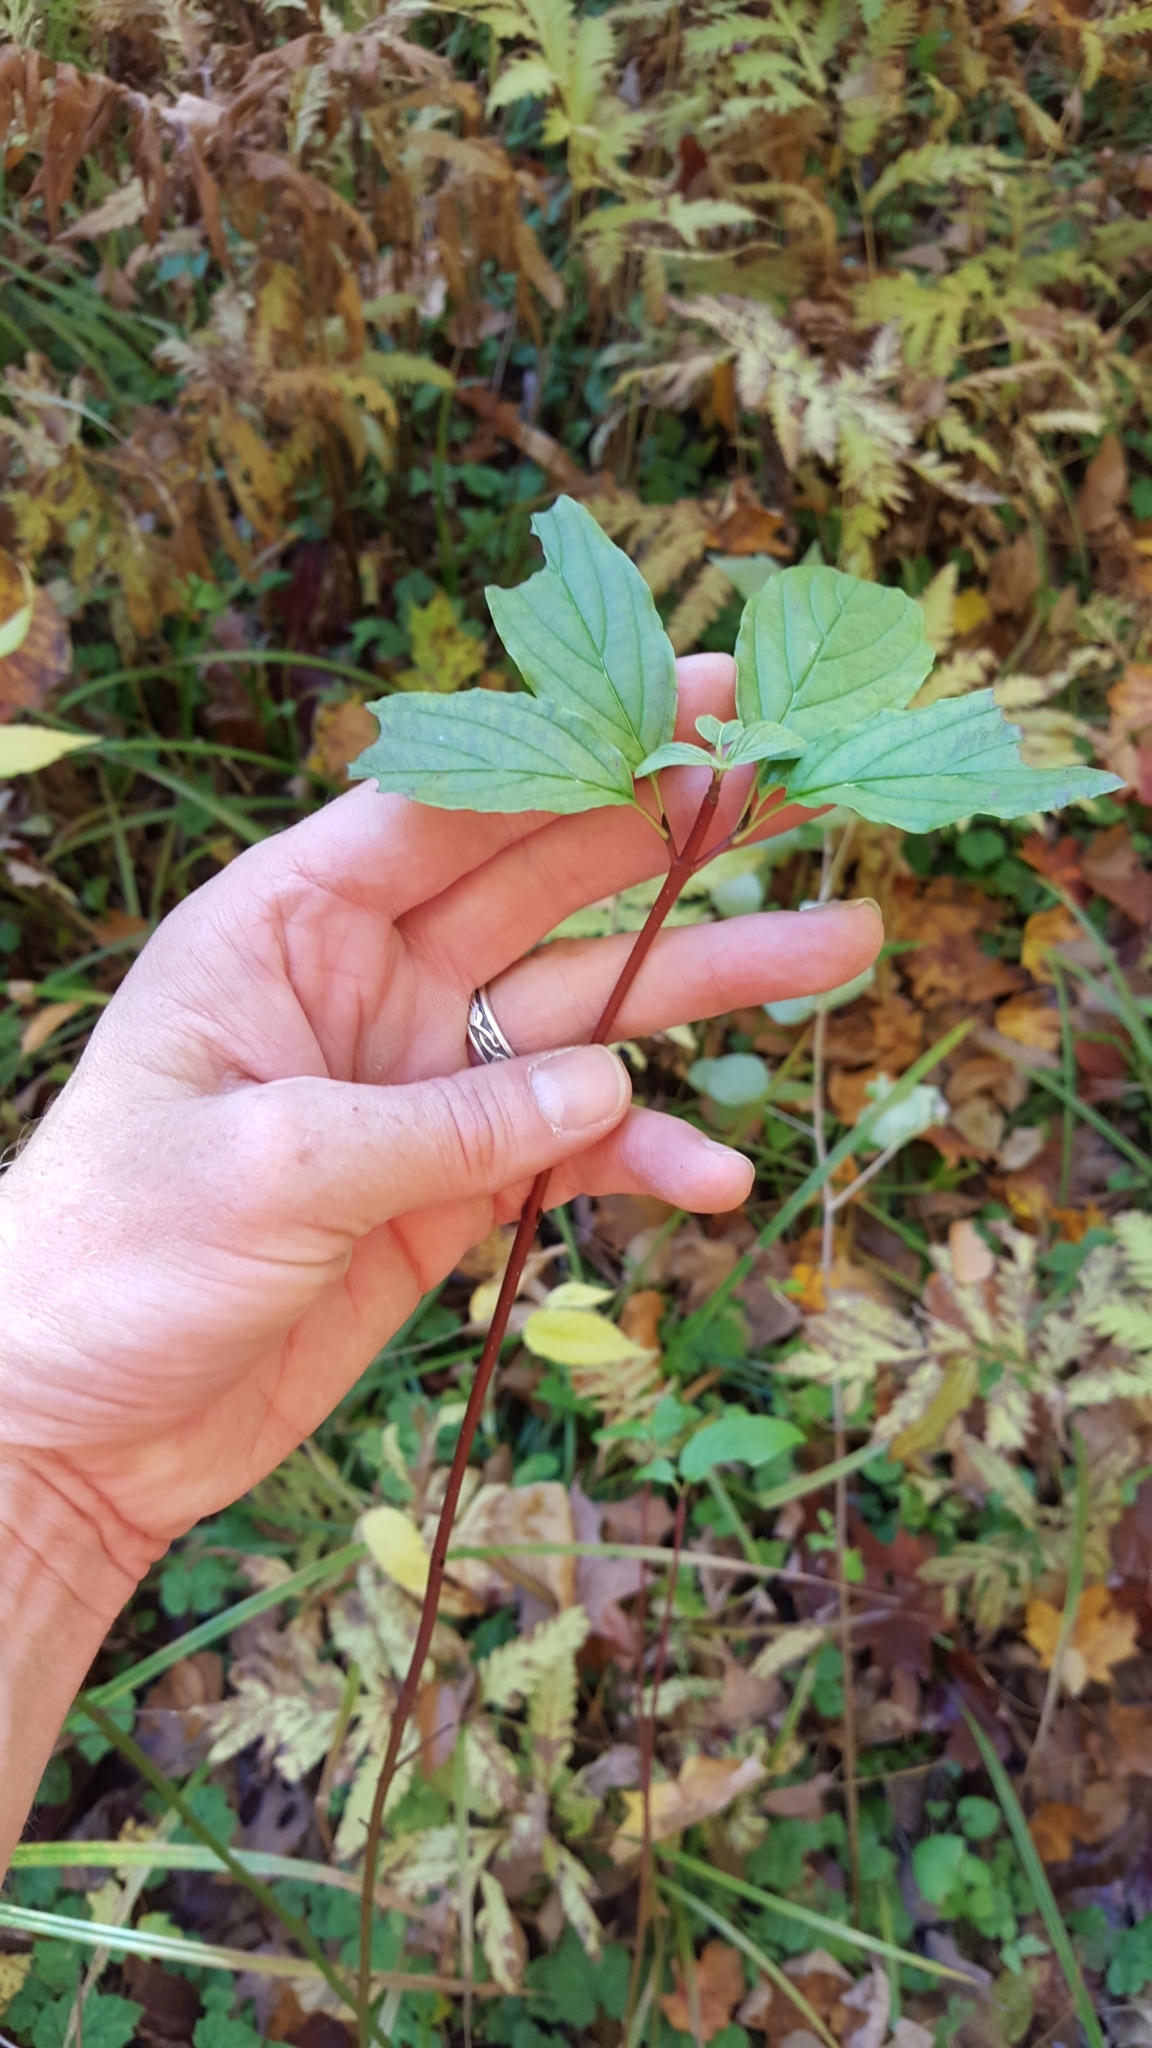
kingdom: Plantae
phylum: Tracheophyta
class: Magnoliopsida
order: Cornales
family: Cornaceae
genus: Cornus
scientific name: Cornus sericea
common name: Red-osier dogwood
